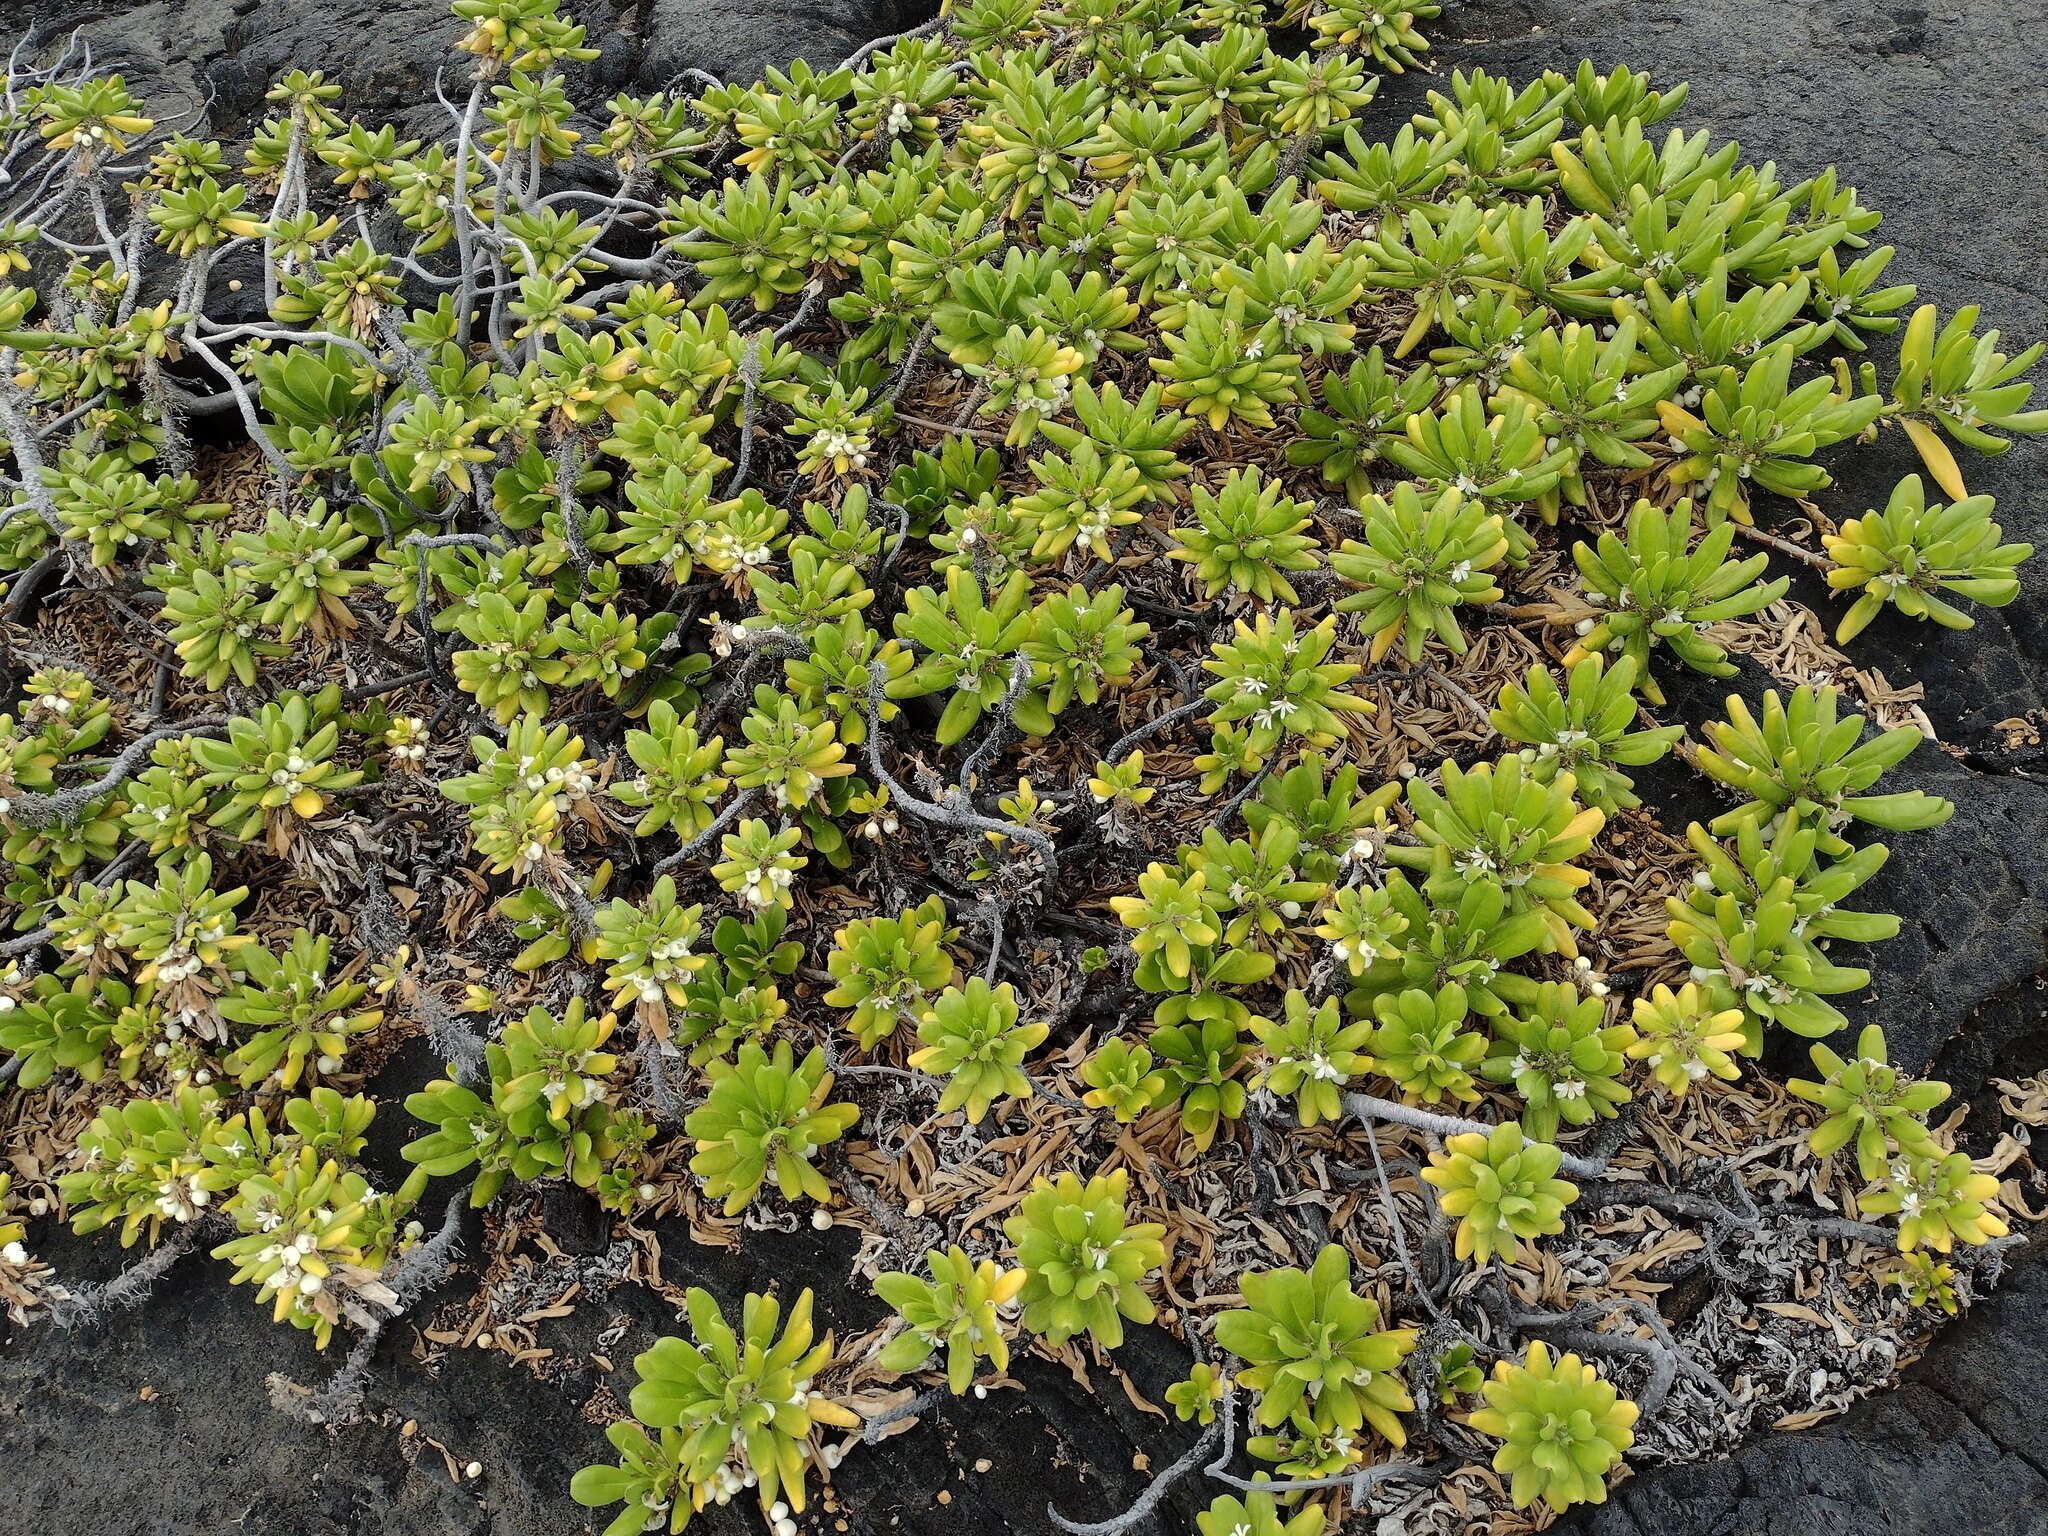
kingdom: Plantae
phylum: Tracheophyta
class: Magnoliopsida
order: Asterales
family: Goodeniaceae
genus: Scaevola
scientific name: Scaevola taccada
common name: Sea lettucetree
